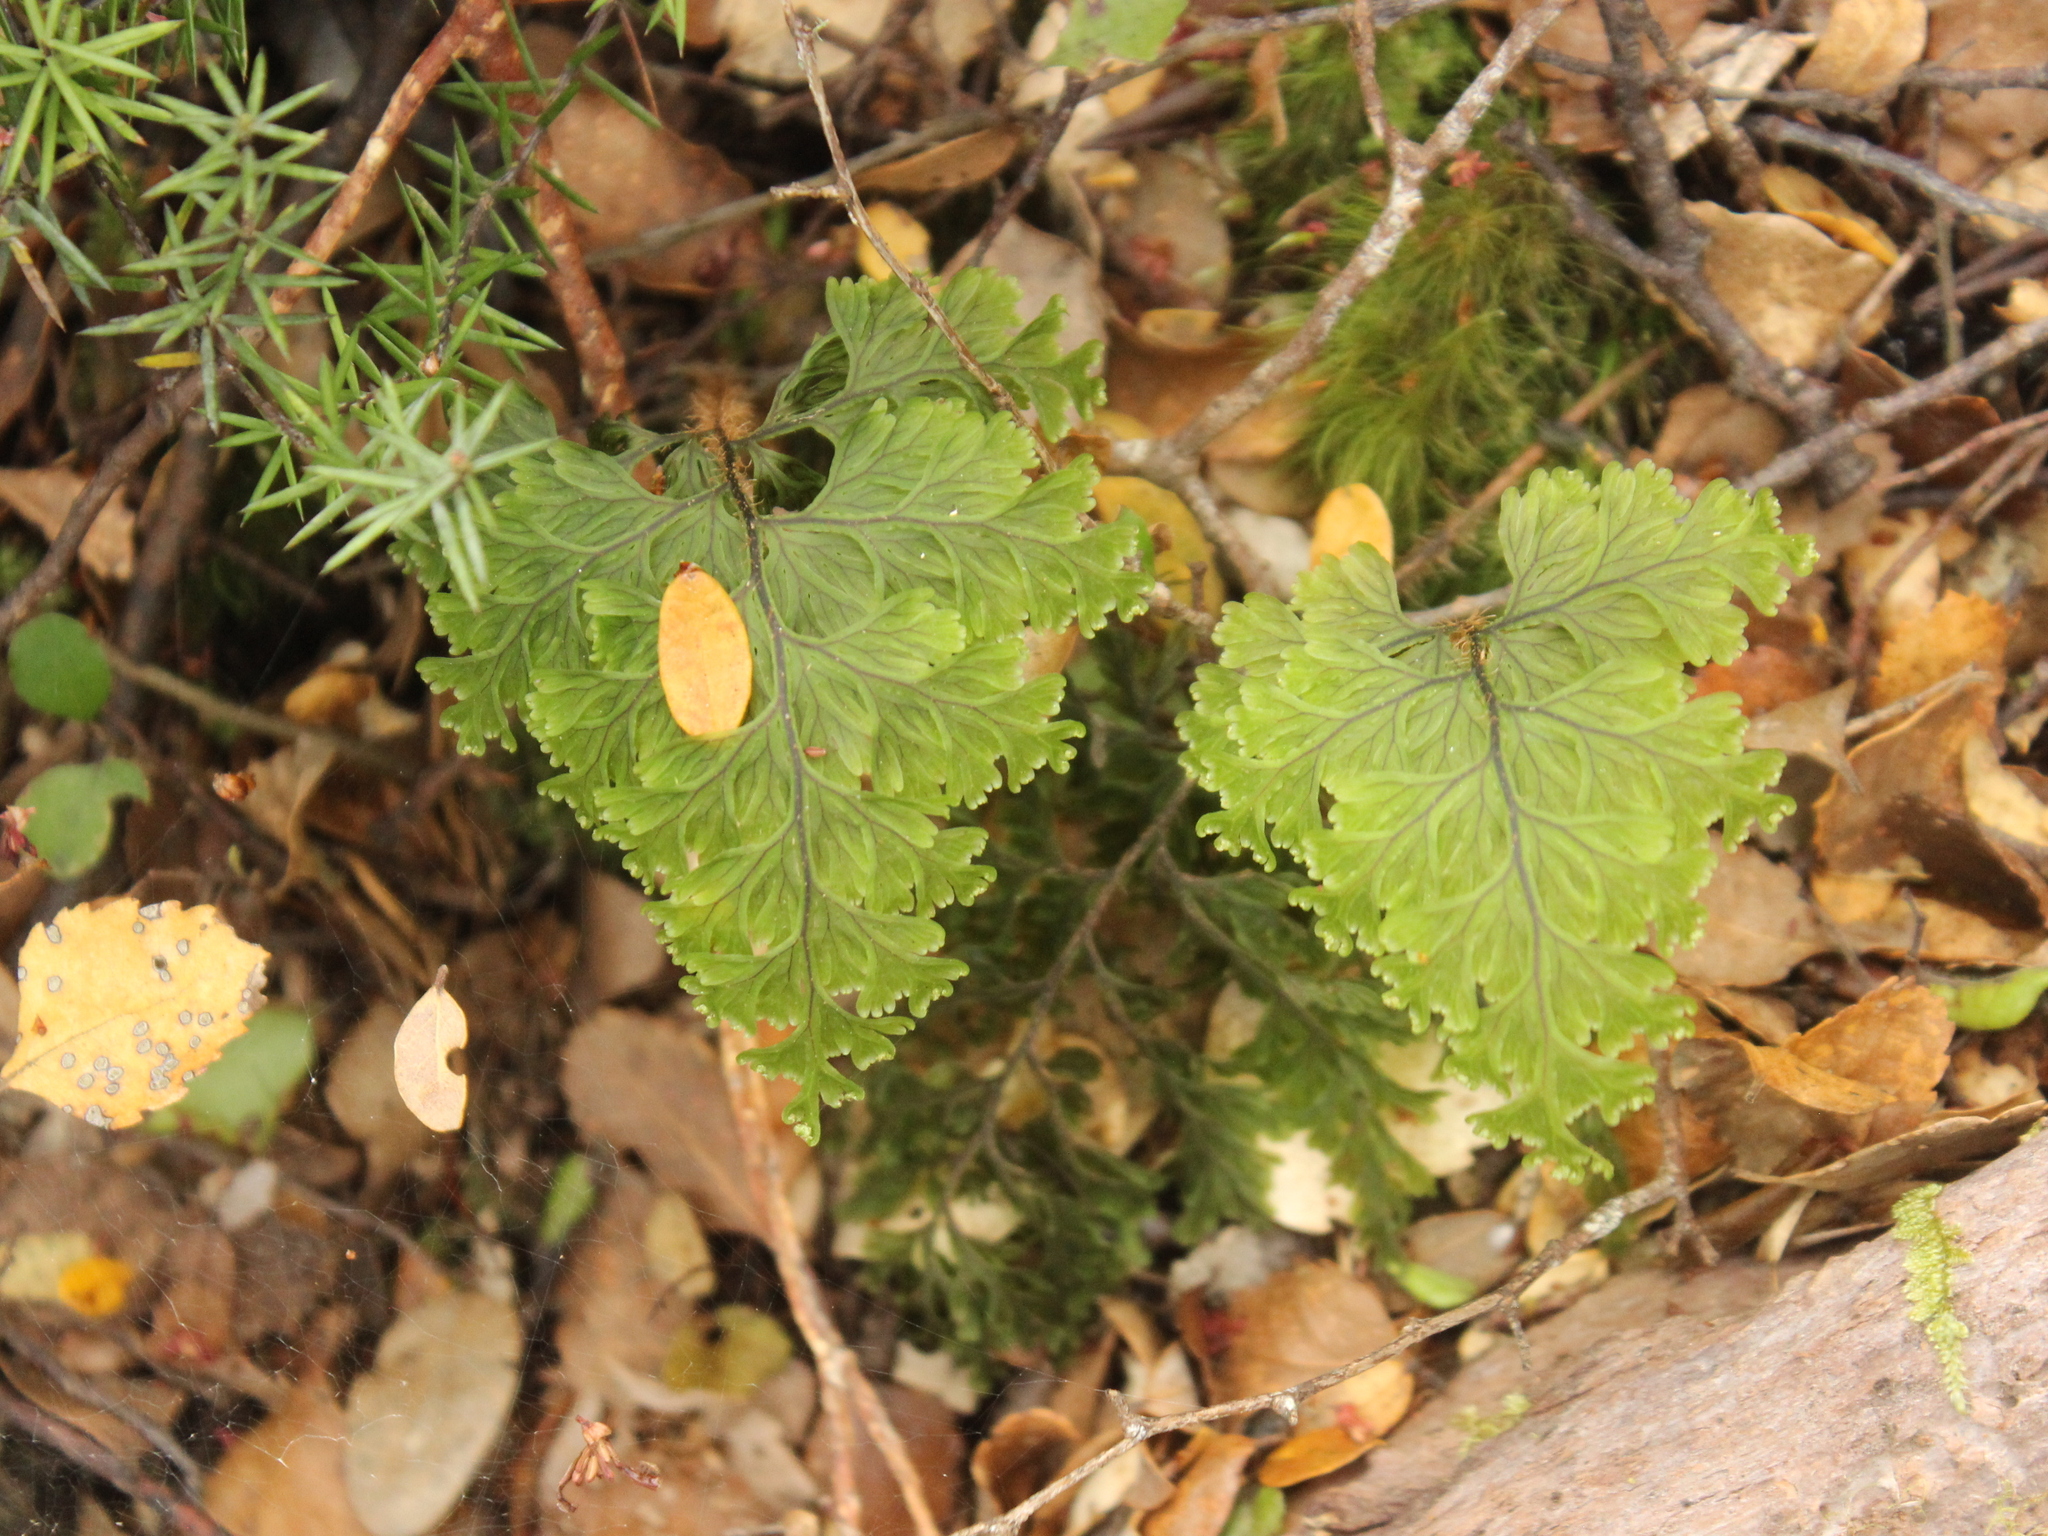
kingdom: Plantae
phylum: Tracheophyta
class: Polypodiopsida
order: Hymenophyllales
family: Hymenophyllaceae
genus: Hymenophyllum
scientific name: Hymenophyllum scabrum
